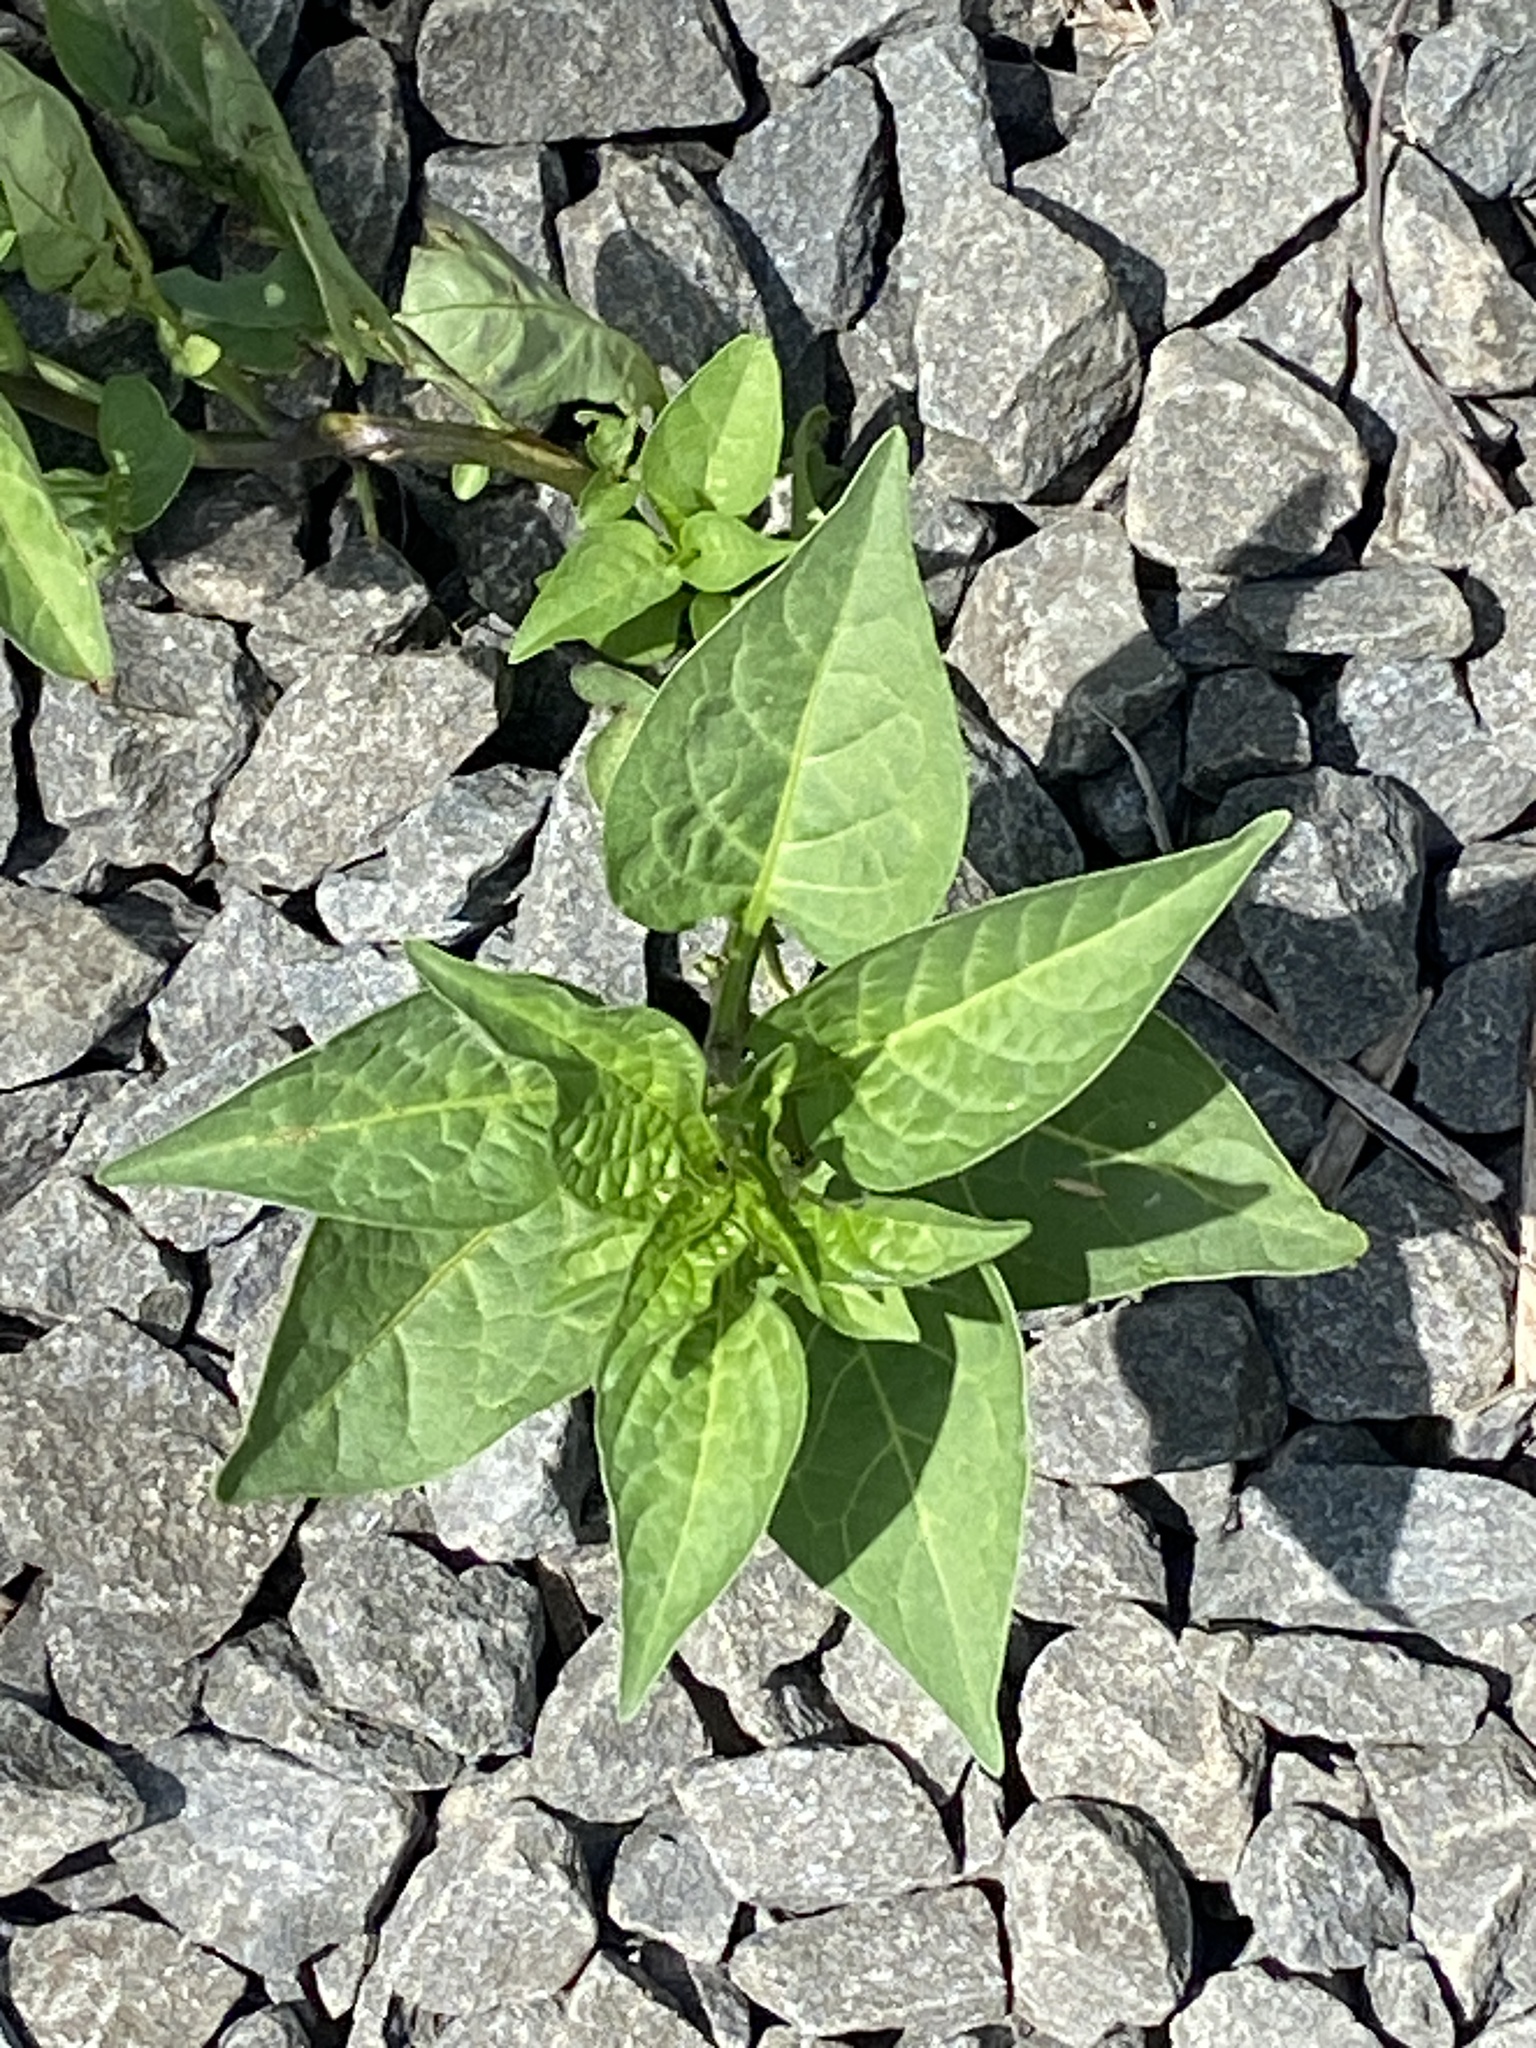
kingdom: Plantae
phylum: Tracheophyta
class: Magnoliopsida
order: Solanales
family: Solanaceae
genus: Solanum
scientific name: Solanum dulcamara
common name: Climbing nightshade
